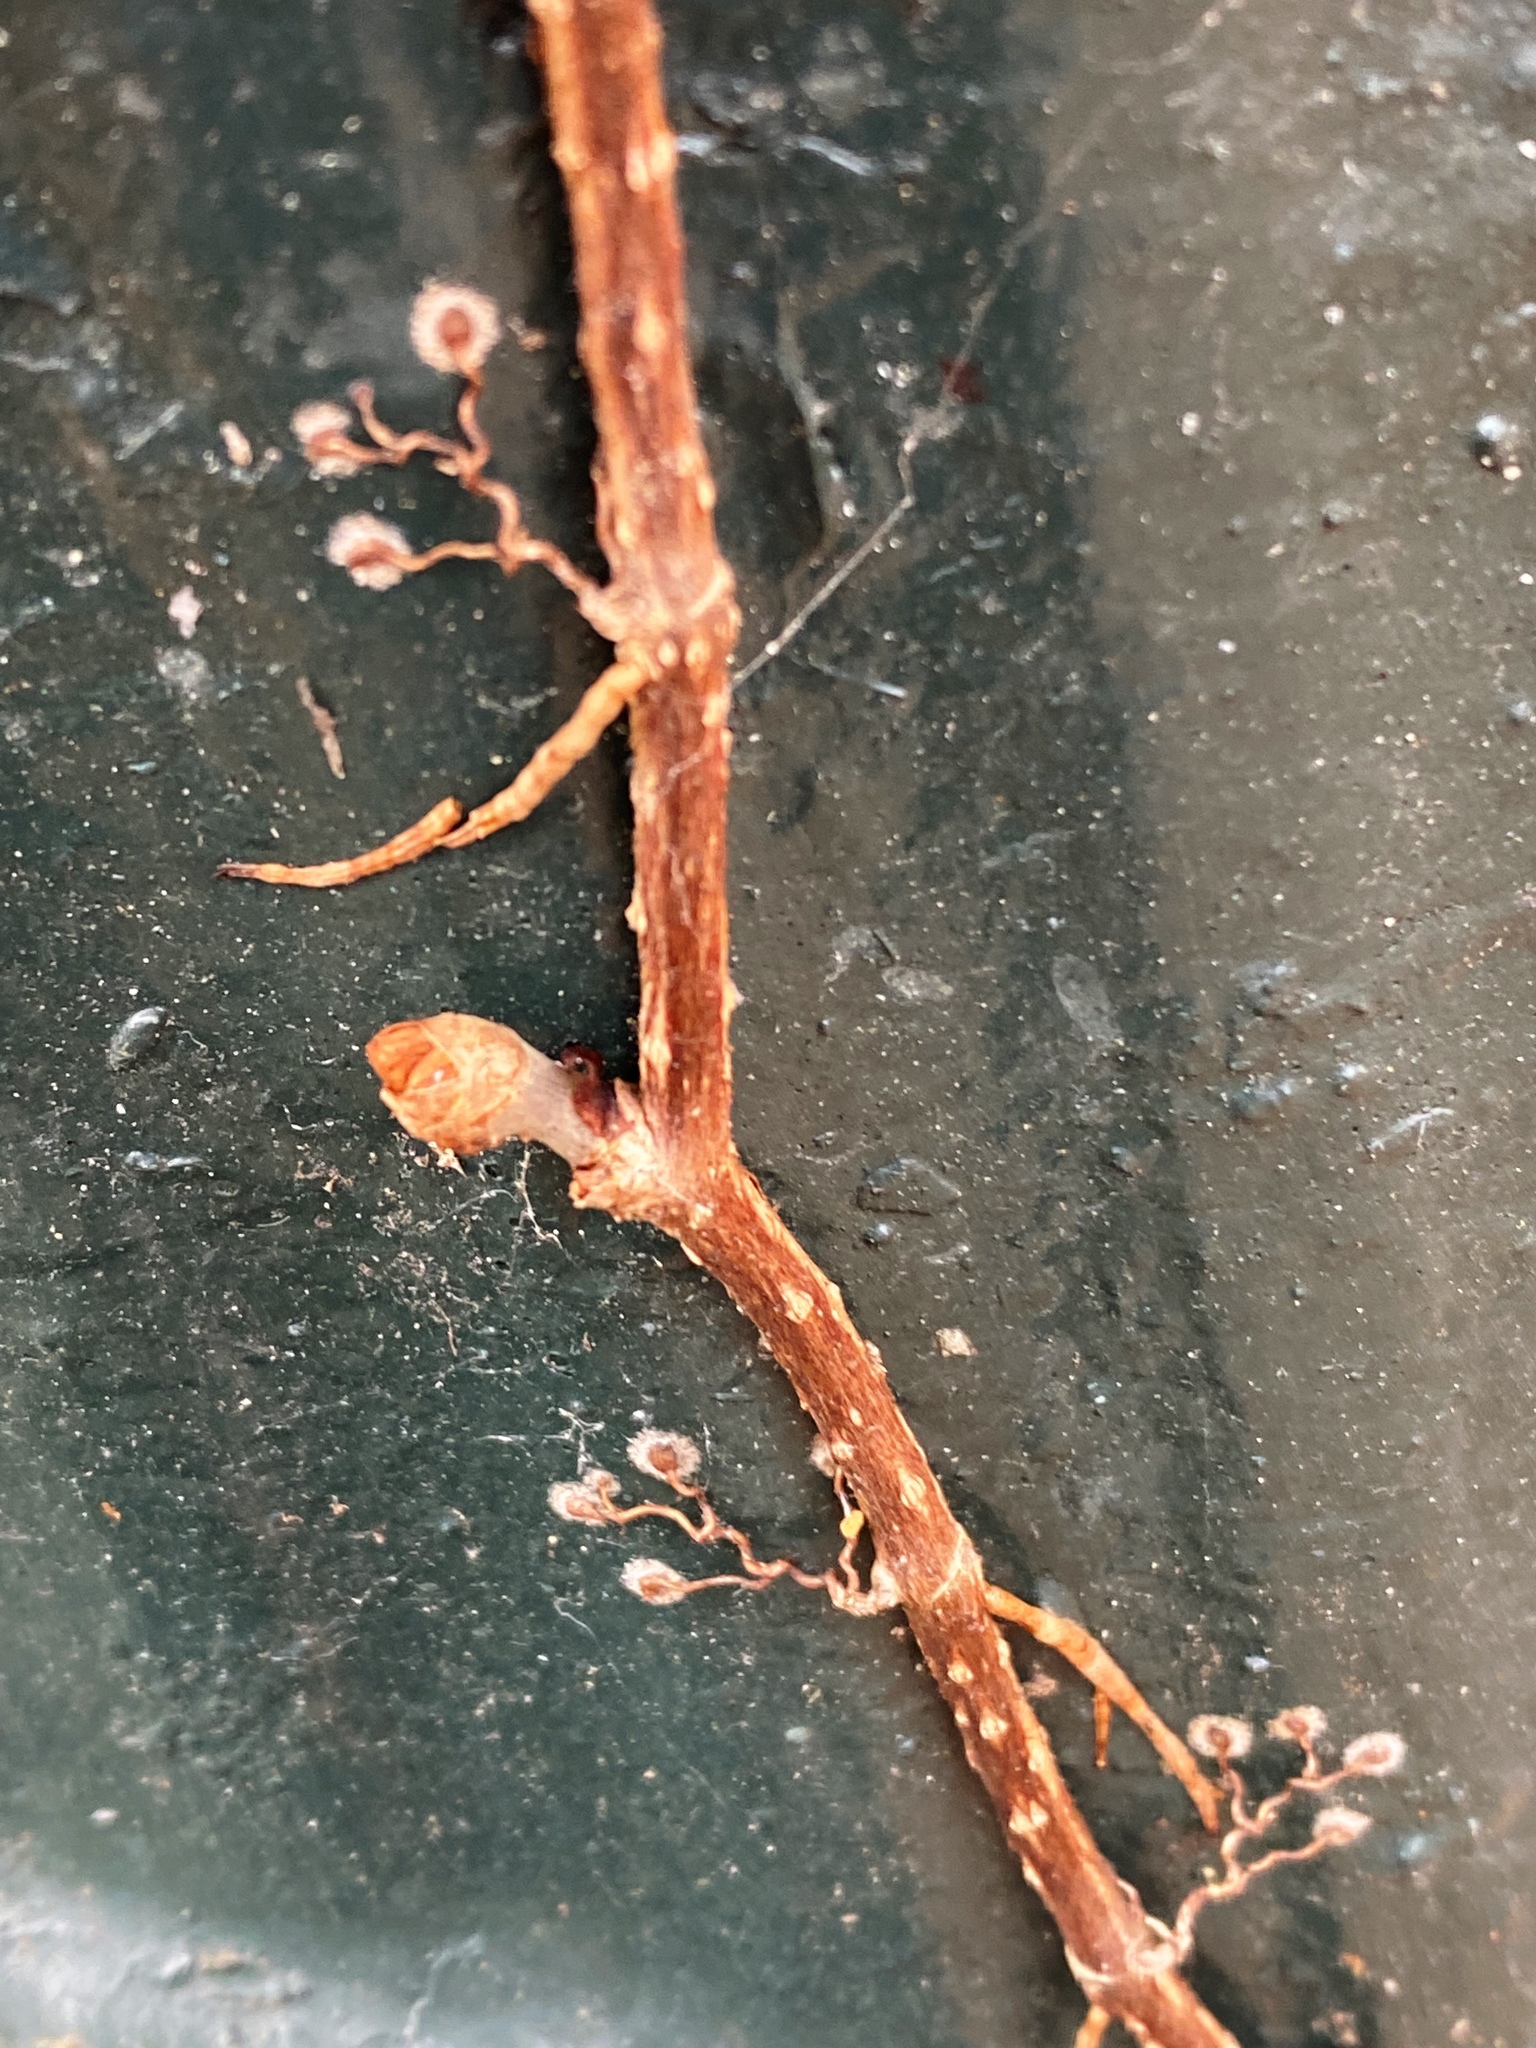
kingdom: Plantae
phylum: Tracheophyta
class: Magnoliopsida
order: Vitales
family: Vitaceae
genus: Parthenocissus
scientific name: Parthenocissus quinquefolia
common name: Virginia-creeper
